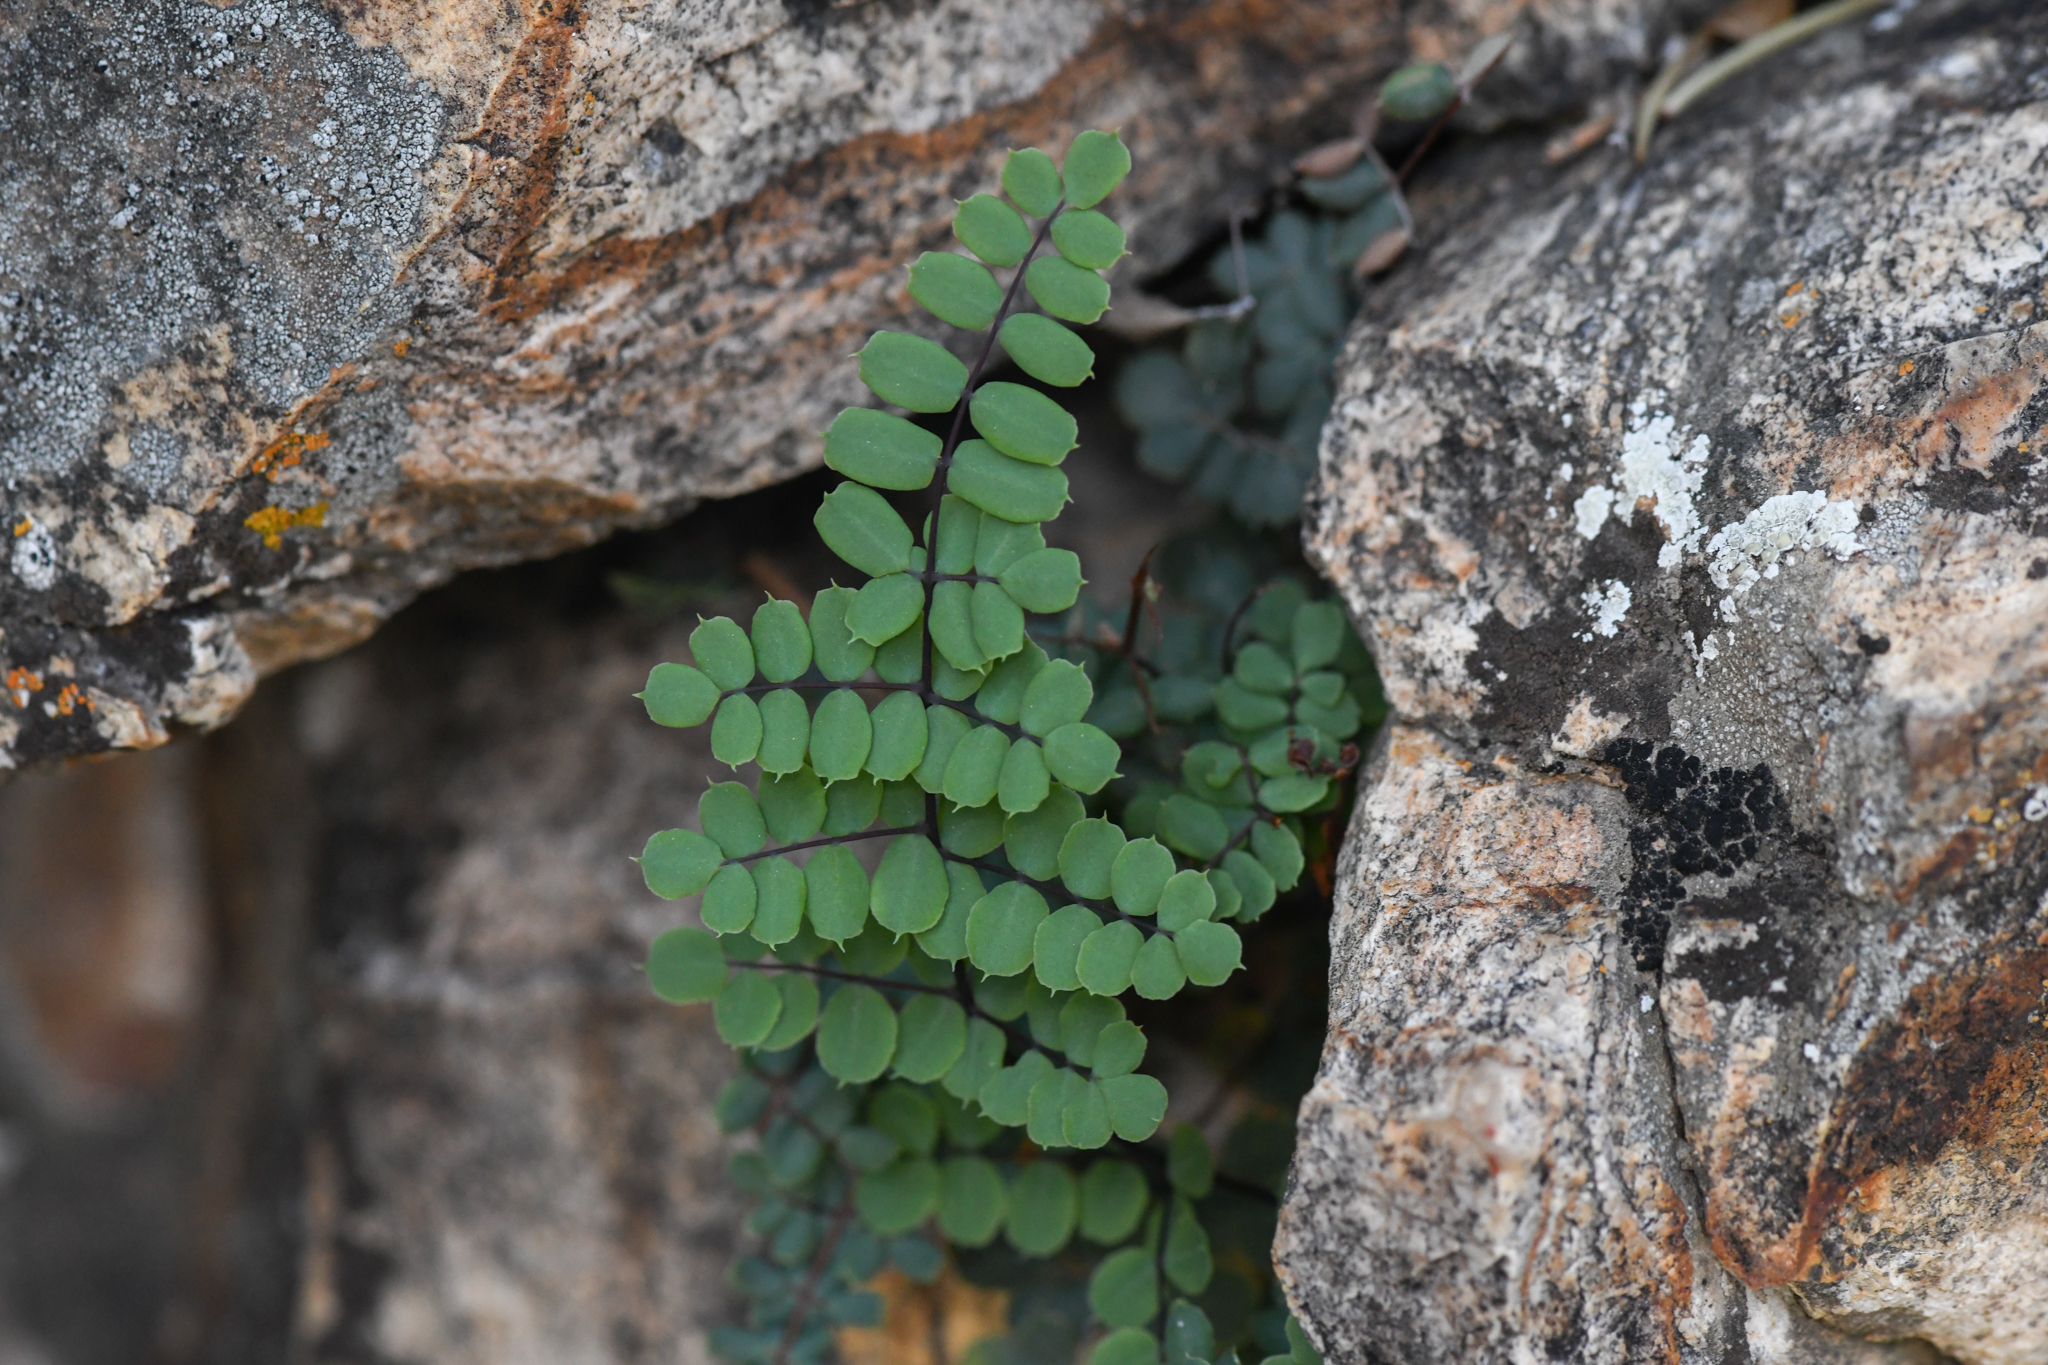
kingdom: Plantae
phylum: Tracheophyta
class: Polypodiopsida
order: Polypodiales
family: Pteridaceae
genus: Pellaea
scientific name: Pellaea truncata
